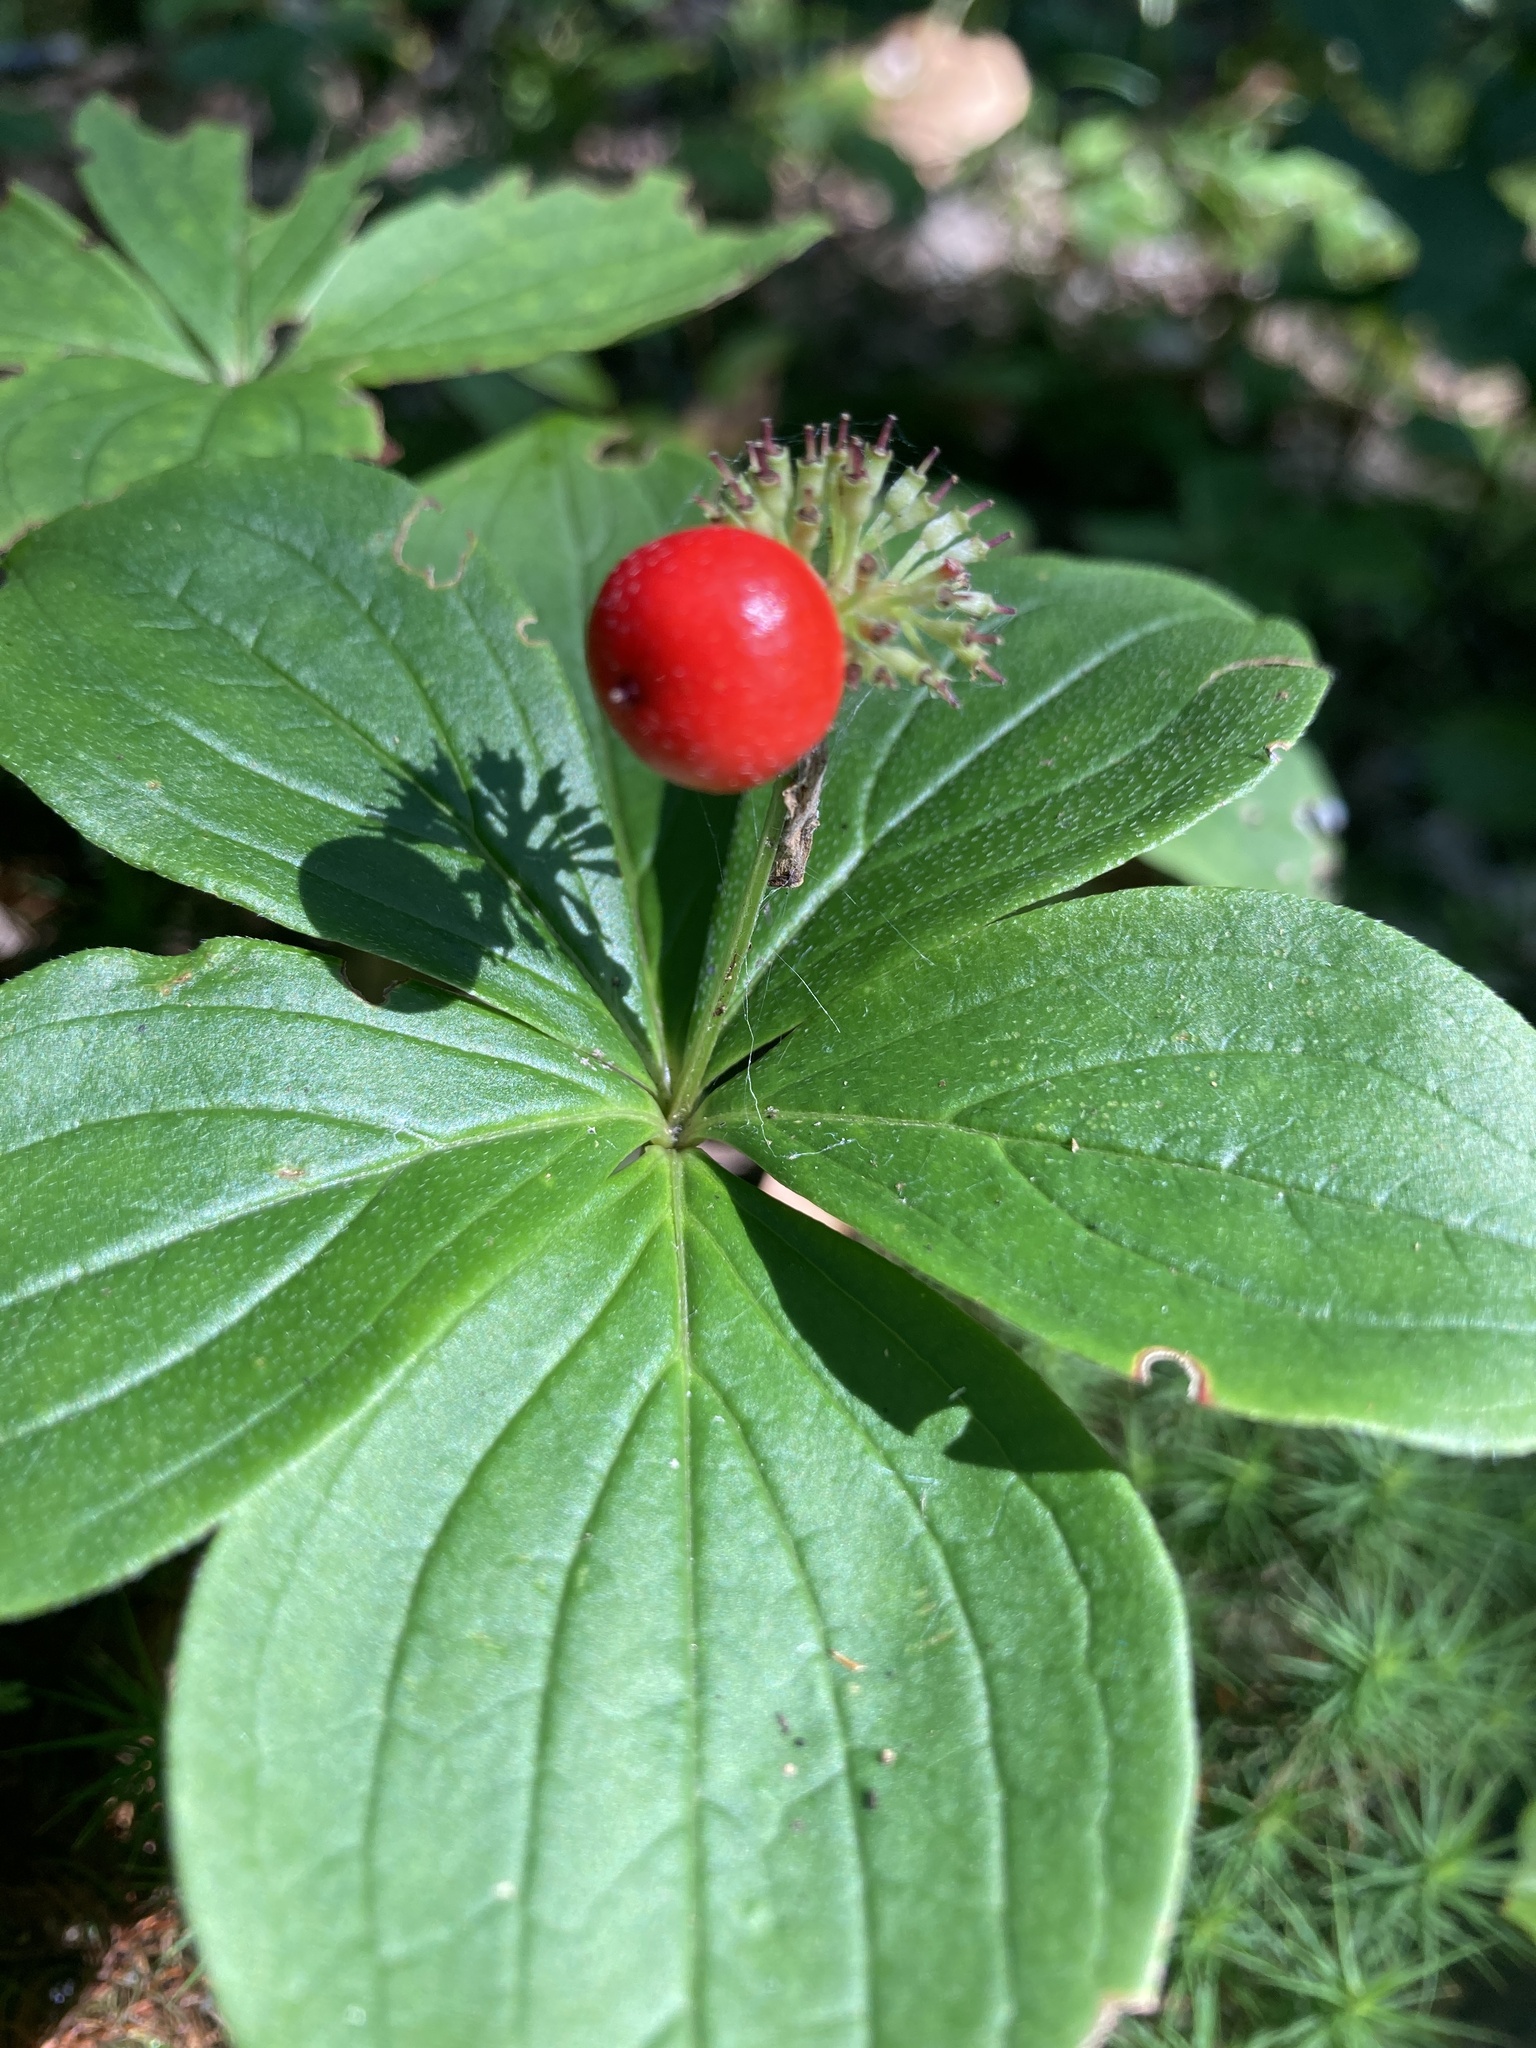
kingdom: Plantae
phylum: Tracheophyta
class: Magnoliopsida
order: Cornales
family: Cornaceae
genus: Cornus
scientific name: Cornus canadensis
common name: Creeping dogwood
